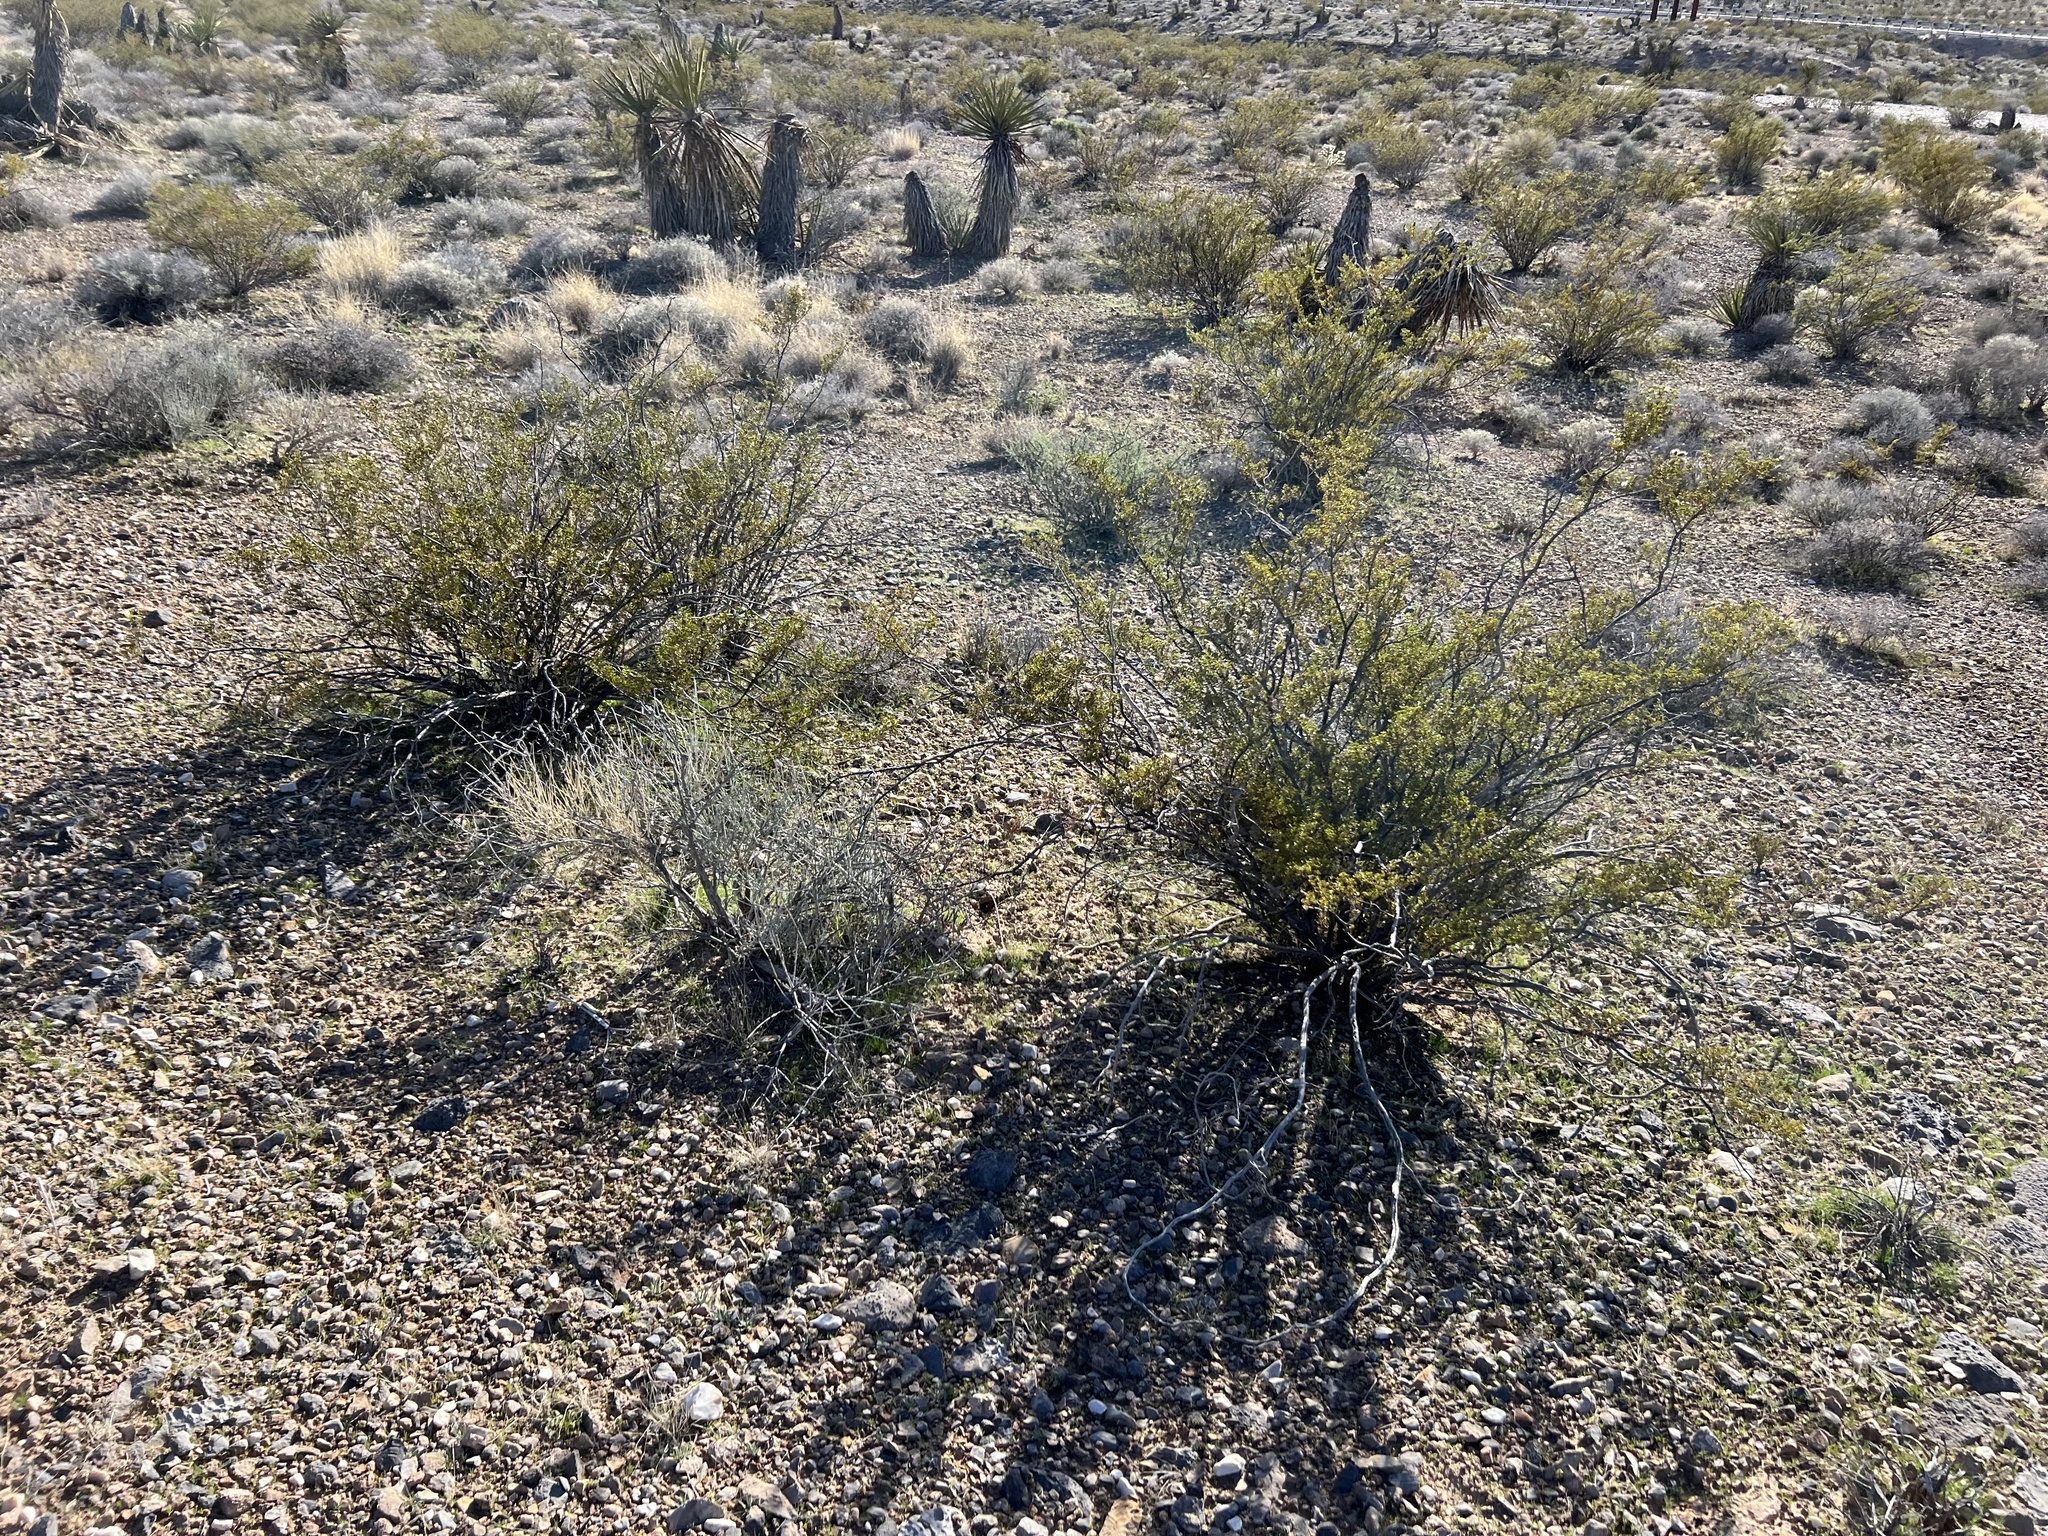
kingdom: Plantae
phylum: Tracheophyta
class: Magnoliopsida
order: Zygophyllales
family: Zygophyllaceae
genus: Larrea
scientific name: Larrea tridentata
